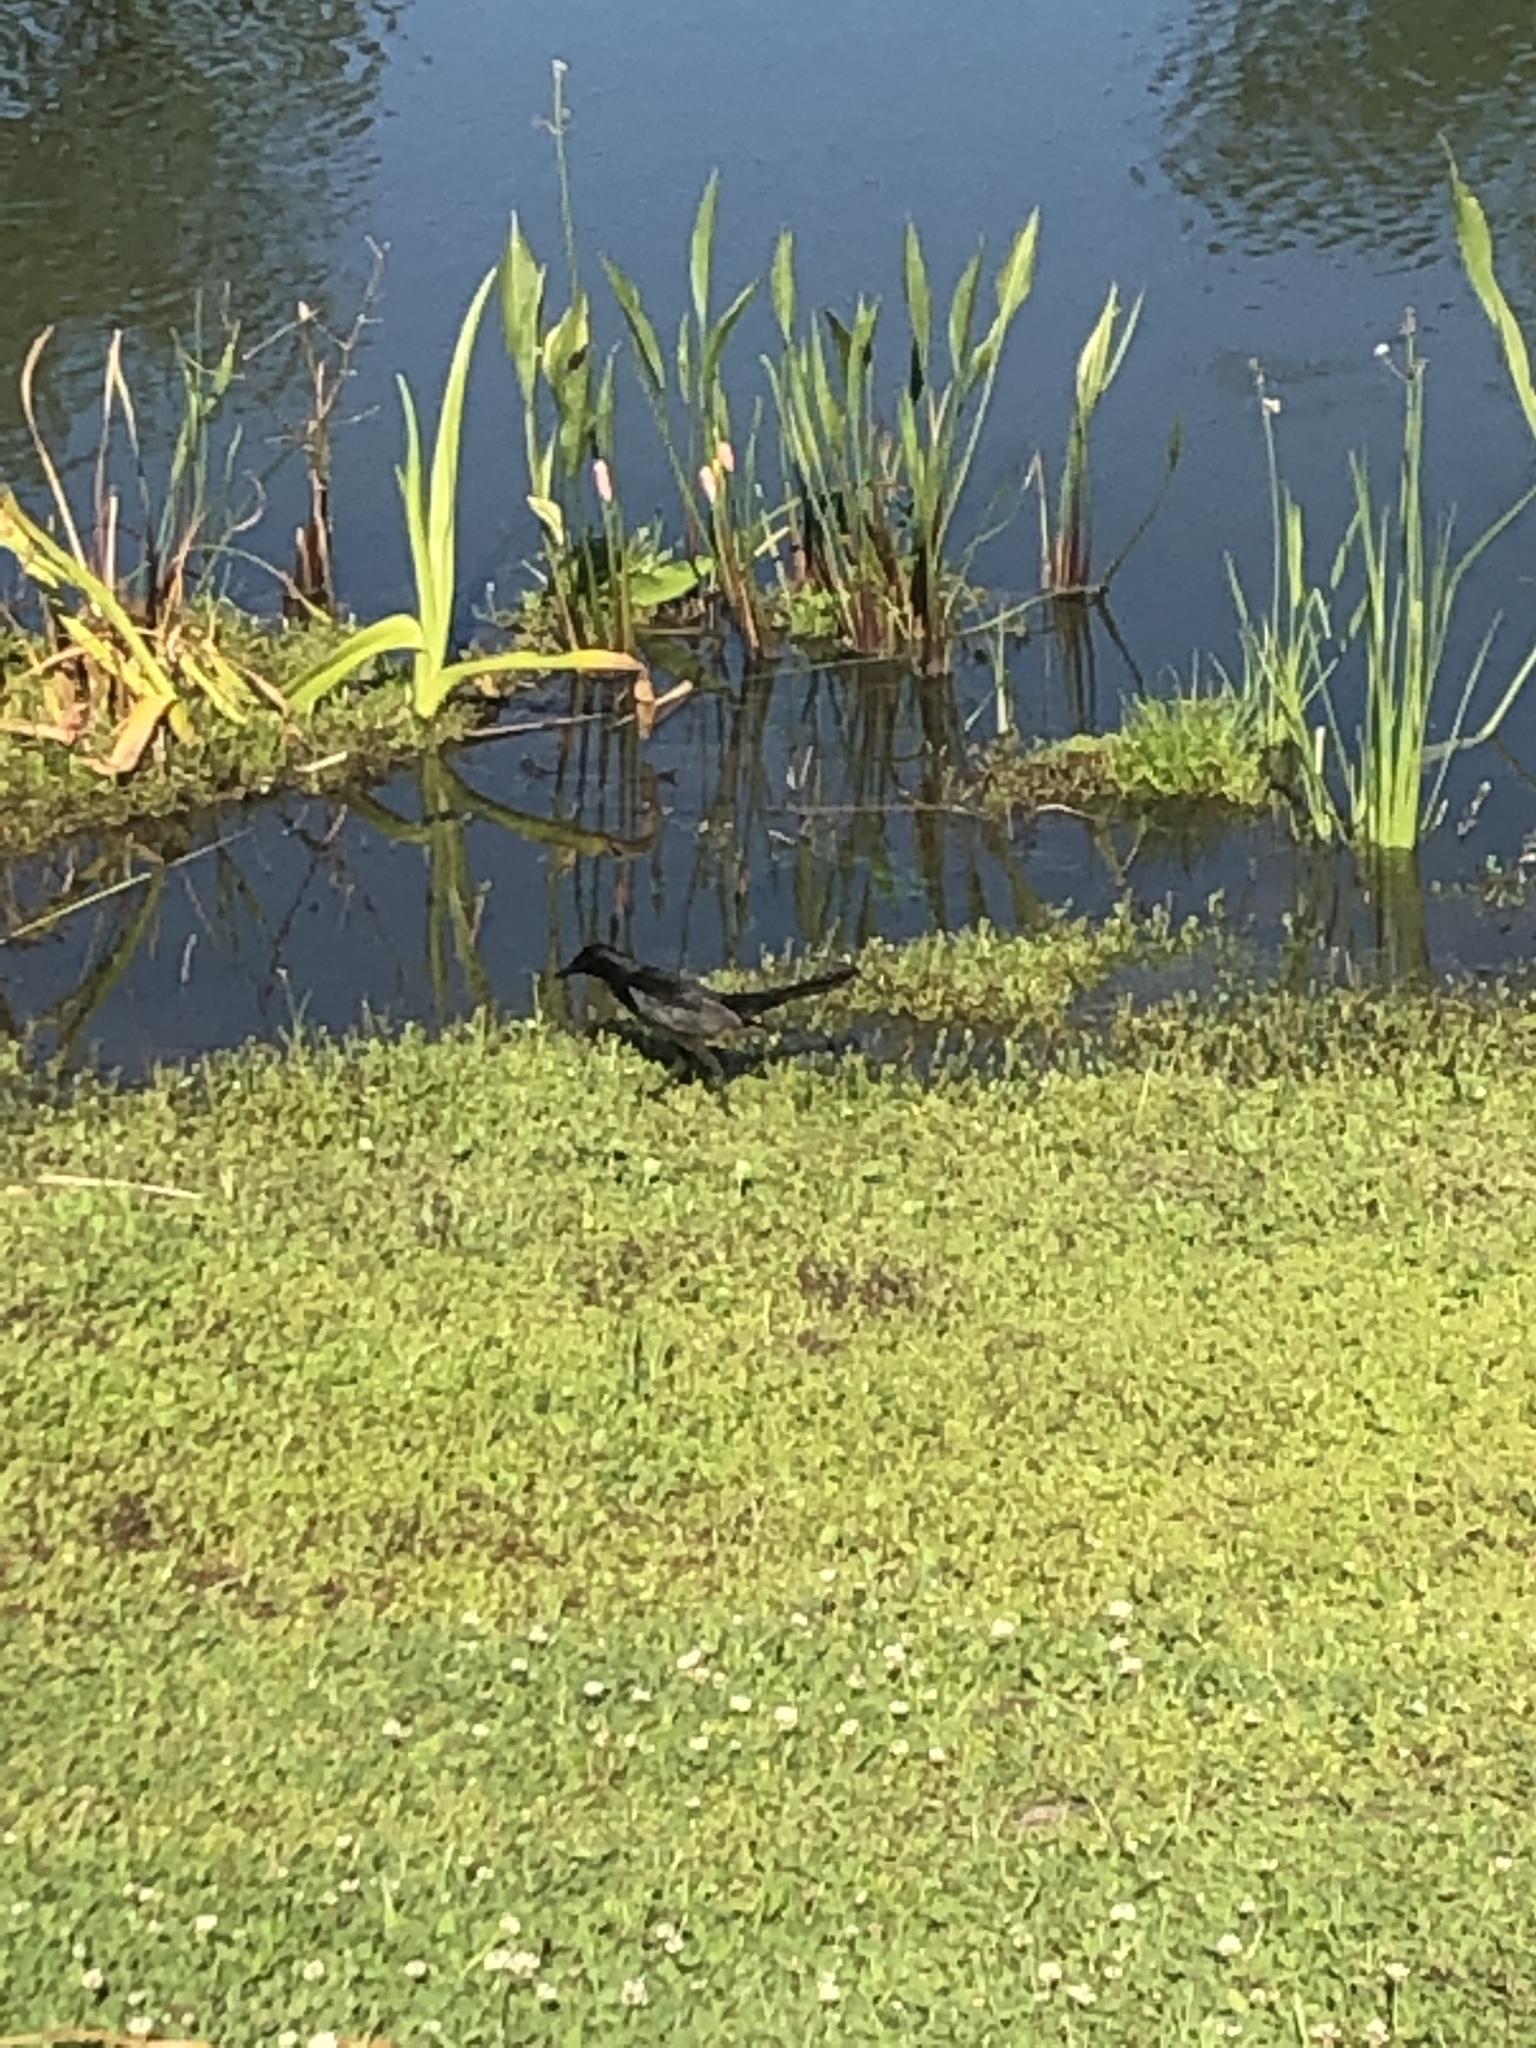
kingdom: Animalia
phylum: Chordata
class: Aves
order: Passeriformes
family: Icteridae
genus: Quiscalus
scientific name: Quiscalus major
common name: Boat-tailed grackle
